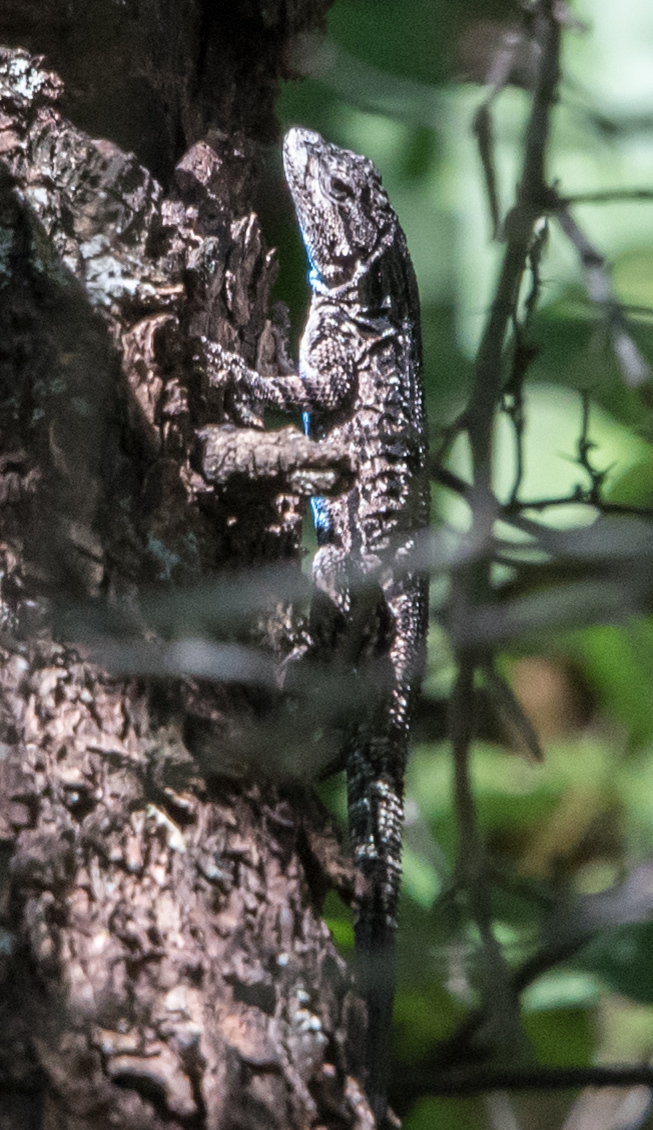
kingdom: Animalia
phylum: Chordata
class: Squamata
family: Phrynosomatidae
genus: Urosaurus
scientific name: Urosaurus ornatus
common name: Ornate tree lizard
